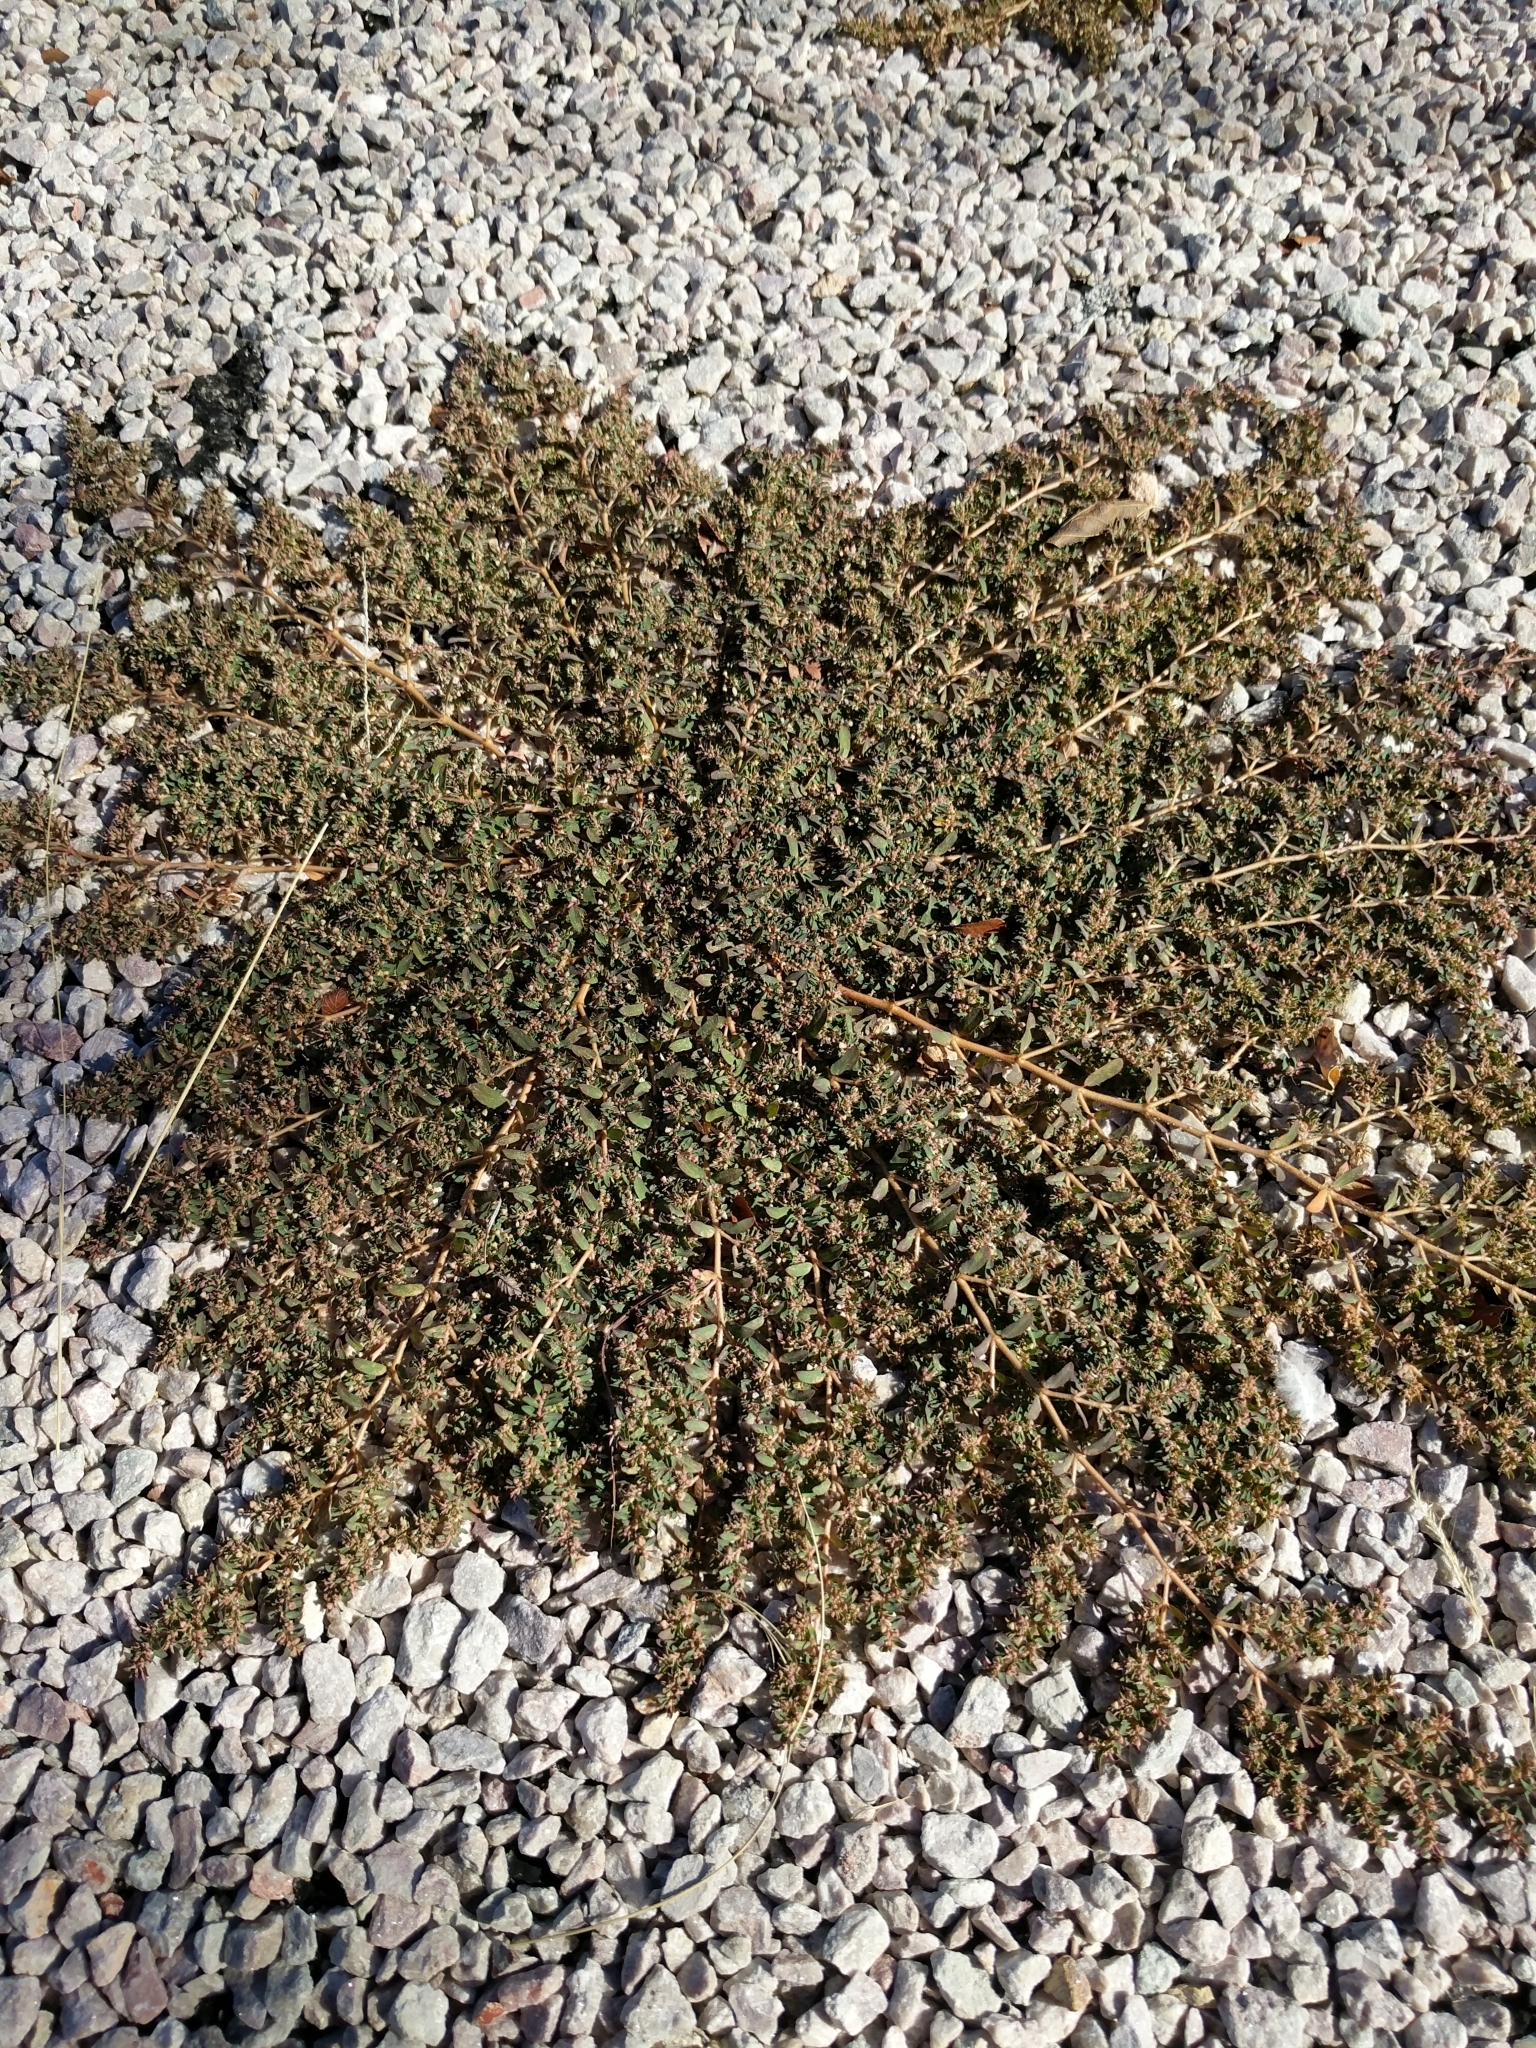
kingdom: Plantae
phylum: Tracheophyta
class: Magnoliopsida
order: Malpighiales
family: Euphorbiaceae
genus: Euphorbia
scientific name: Euphorbia maculata
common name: Spotted spurge
